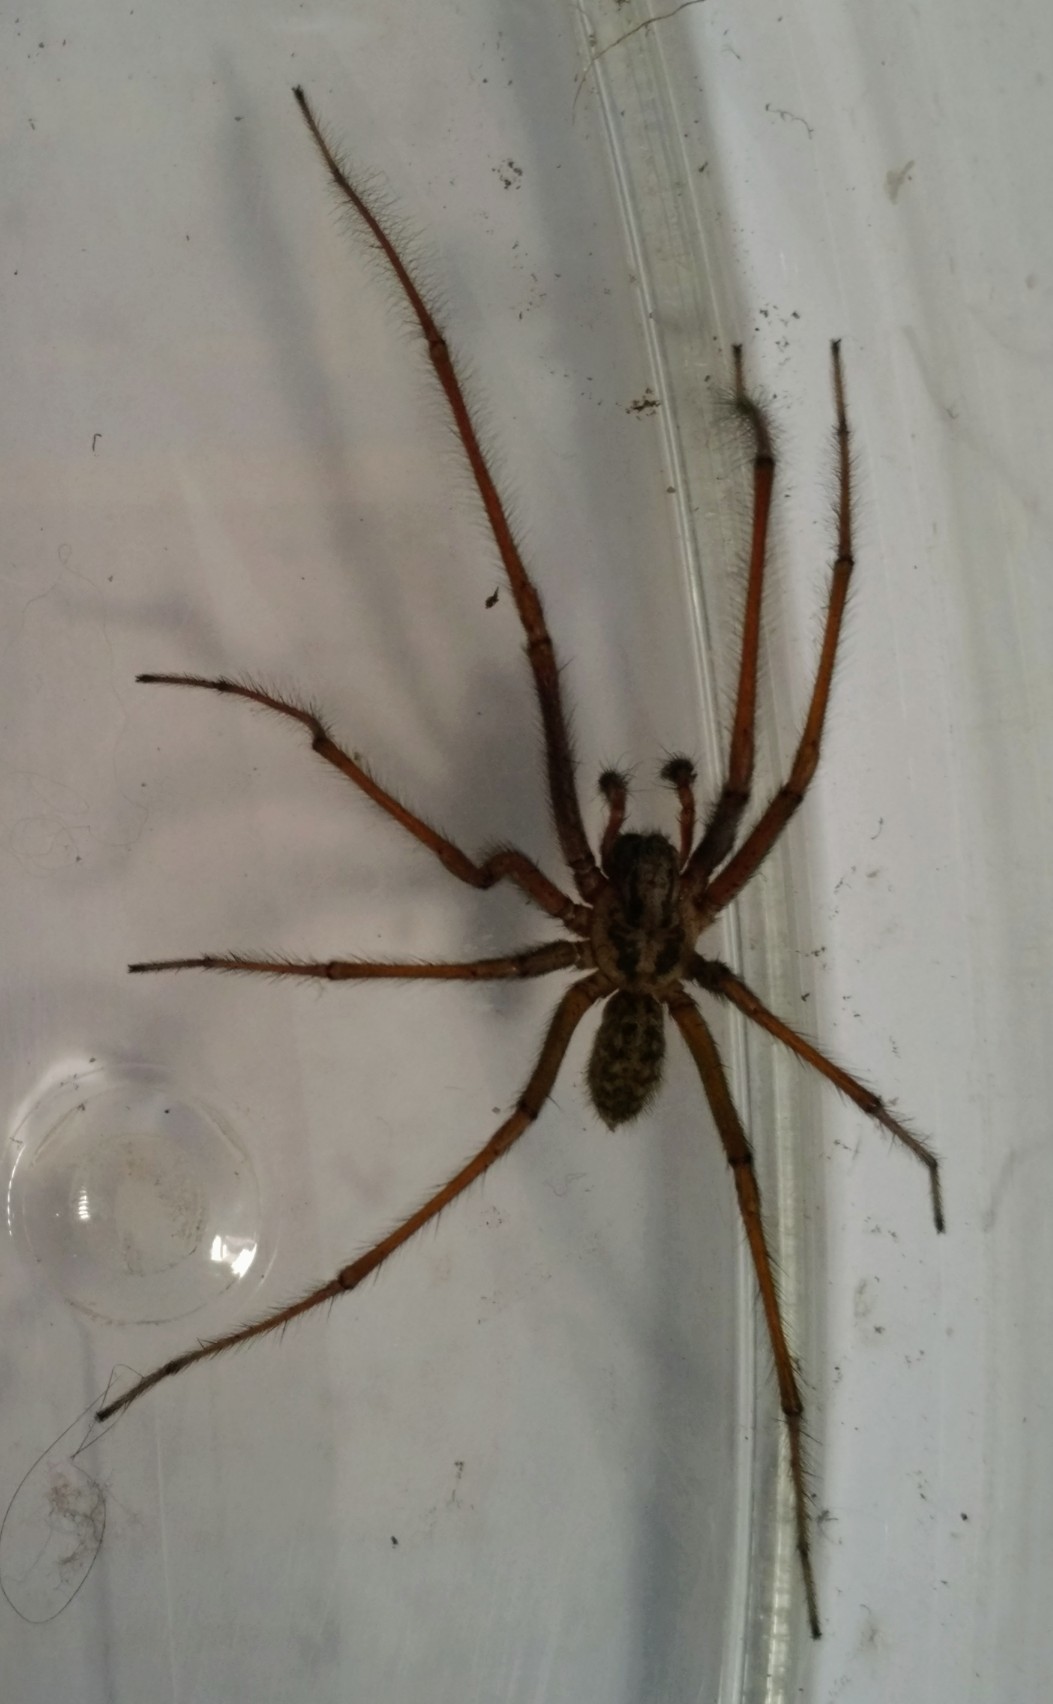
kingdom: Animalia
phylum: Arthropoda
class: Arachnida
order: Araneae
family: Agelenidae
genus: Eratigena
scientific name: Eratigena duellica
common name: Giant house spider
